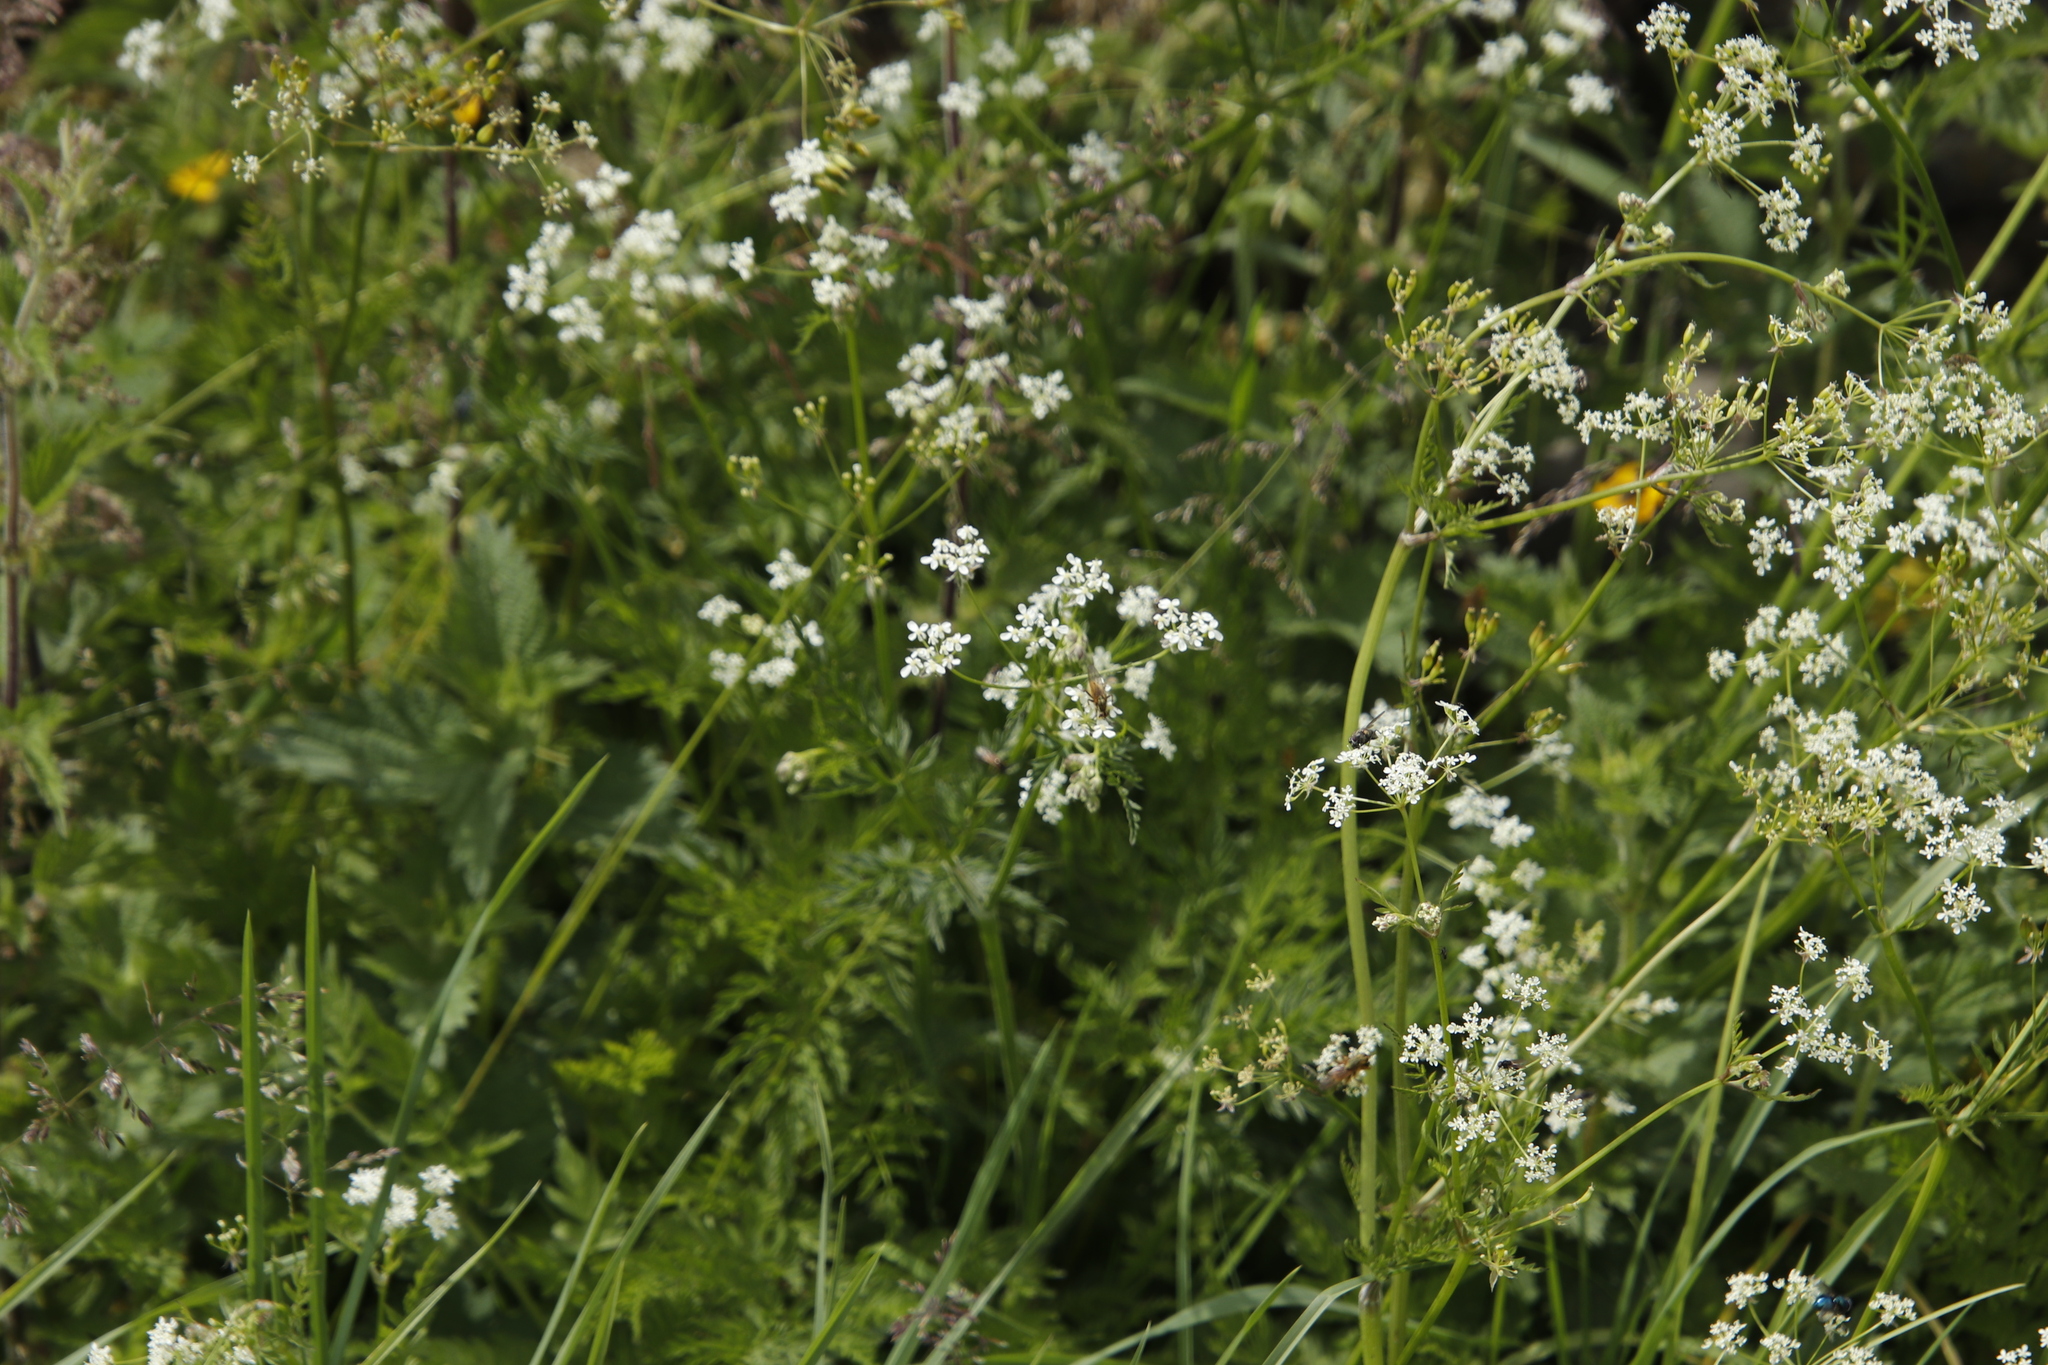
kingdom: Plantae
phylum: Tracheophyta
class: Magnoliopsida
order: Apiales
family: Apiaceae
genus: Anthriscus
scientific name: Anthriscus sylvestris
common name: Cow parsley
